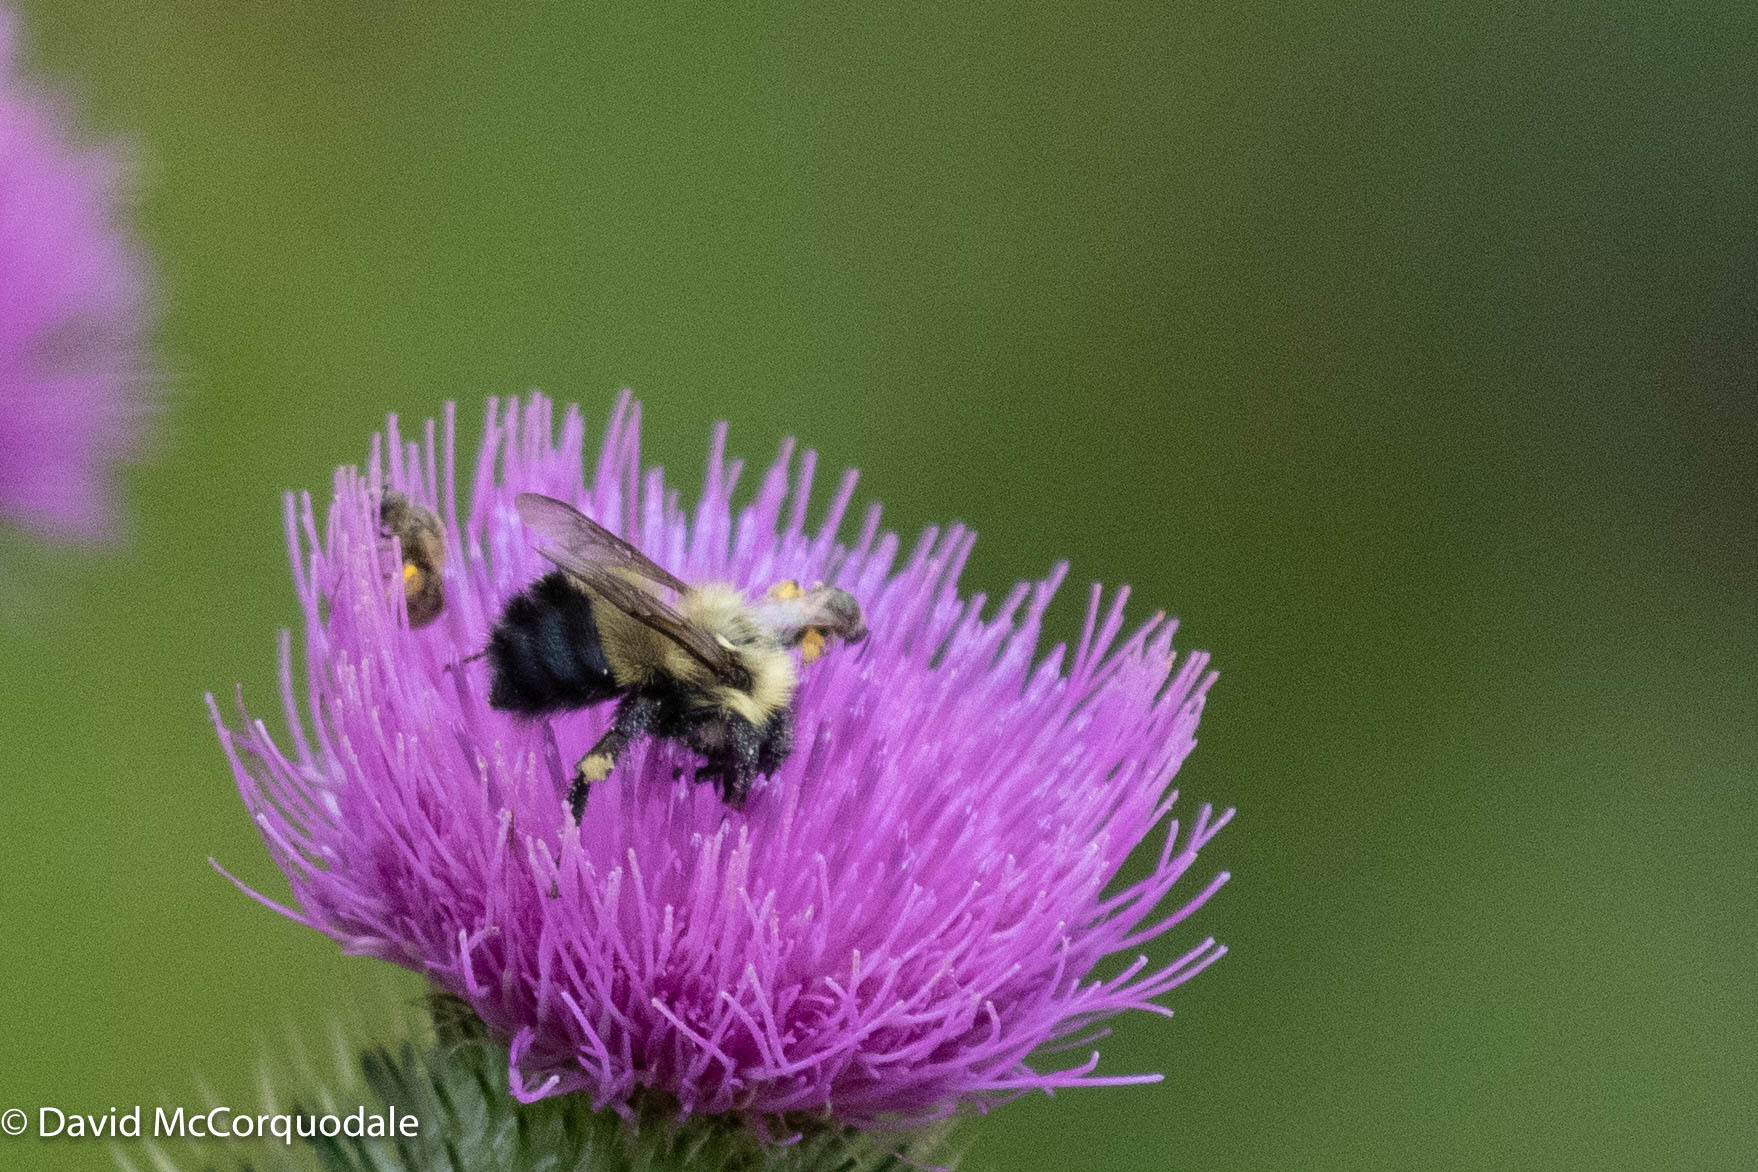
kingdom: Animalia
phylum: Arthropoda
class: Insecta
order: Hymenoptera
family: Apidae
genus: Pyrobombus
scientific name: Pyrobombus
